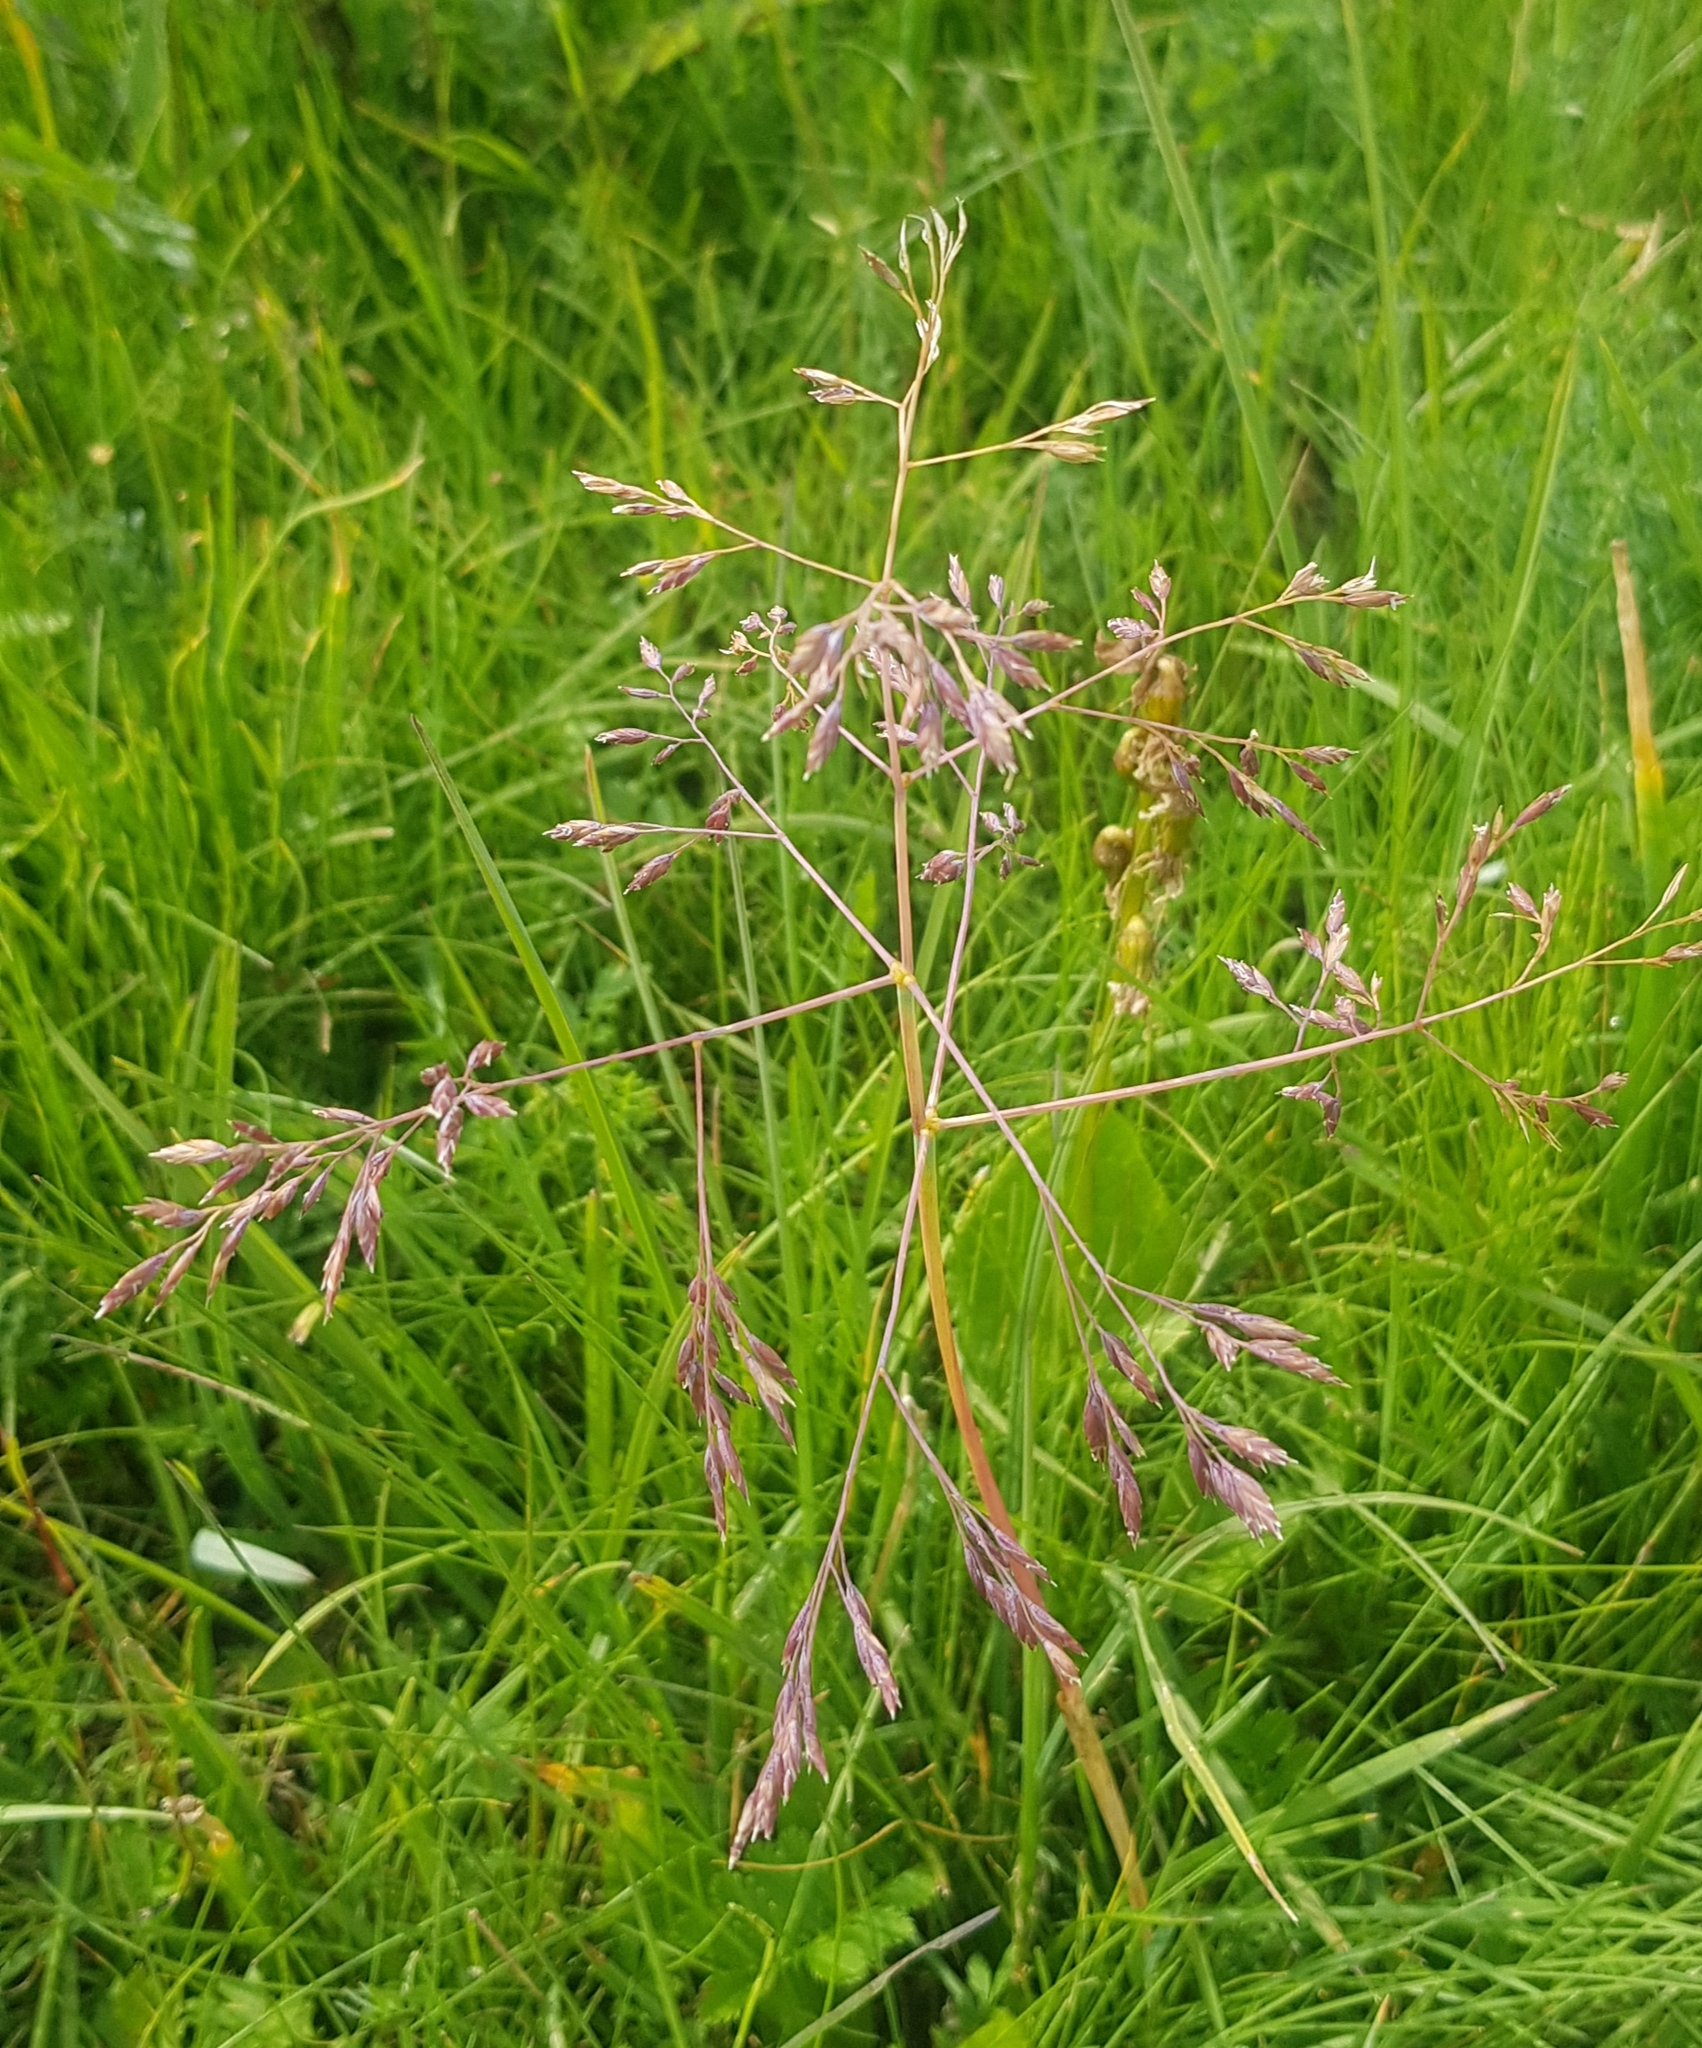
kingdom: Plantae
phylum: Tracheophyta
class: Liliopsida
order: Poales
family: Poaceae
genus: Poa
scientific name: Poa subfastigiata
